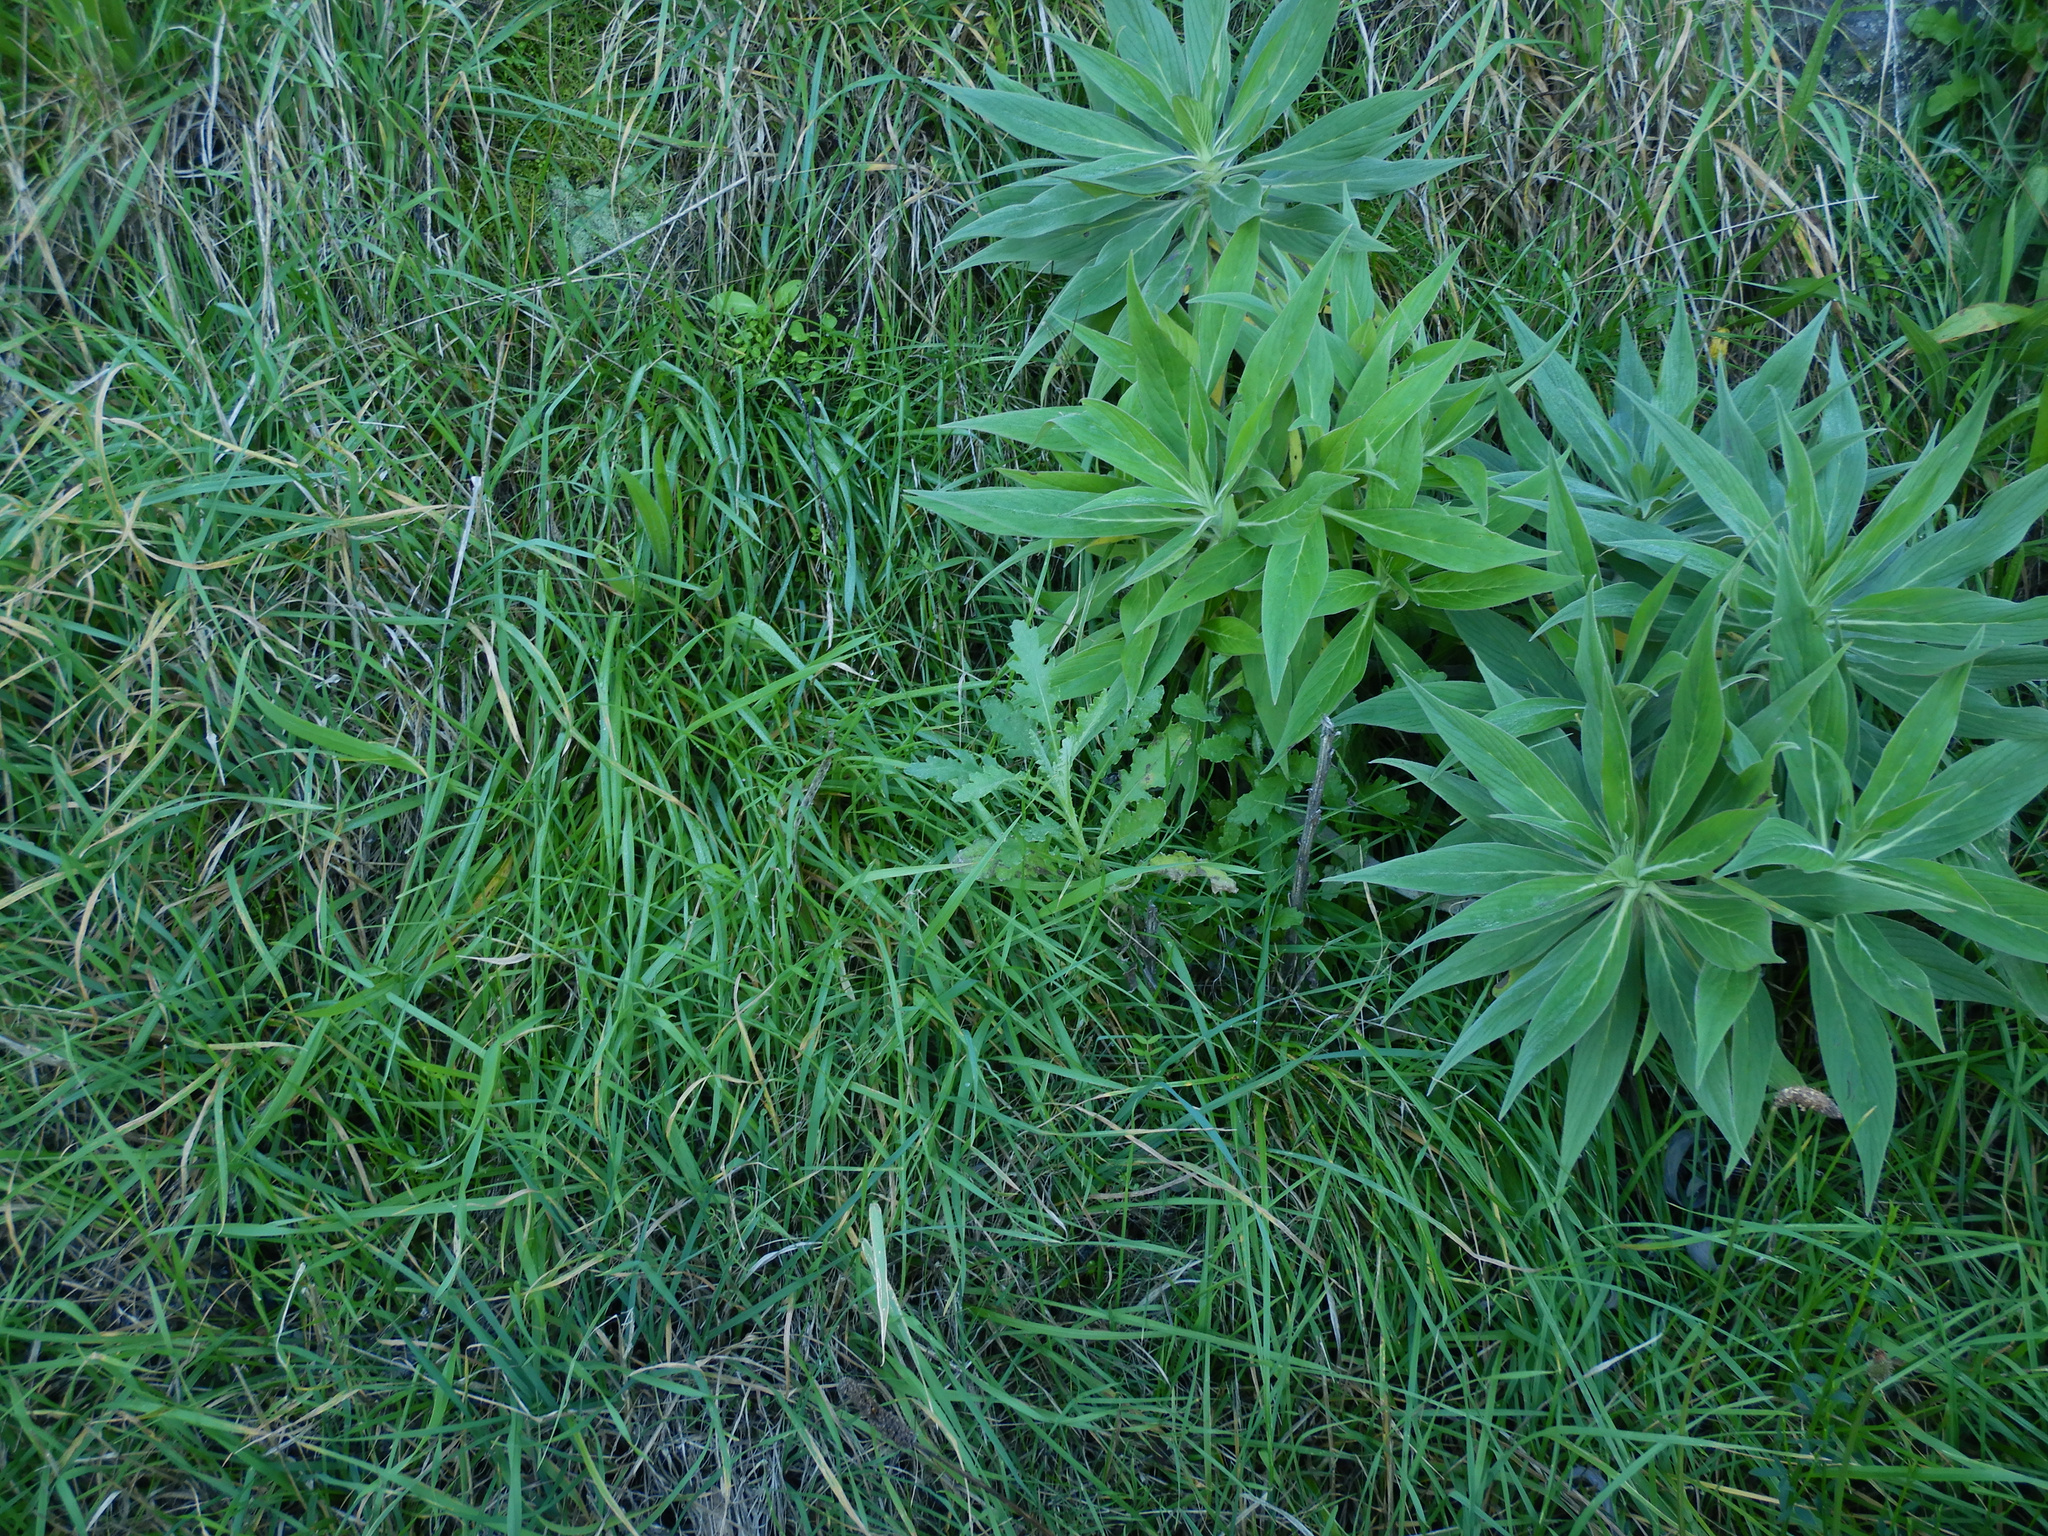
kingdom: Plantae
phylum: Tracheophyta
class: Magnoliopsida
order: Asterales
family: Asteraceae
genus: Senecio
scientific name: Senecio glomeratus
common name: Cutleaf burnweed
